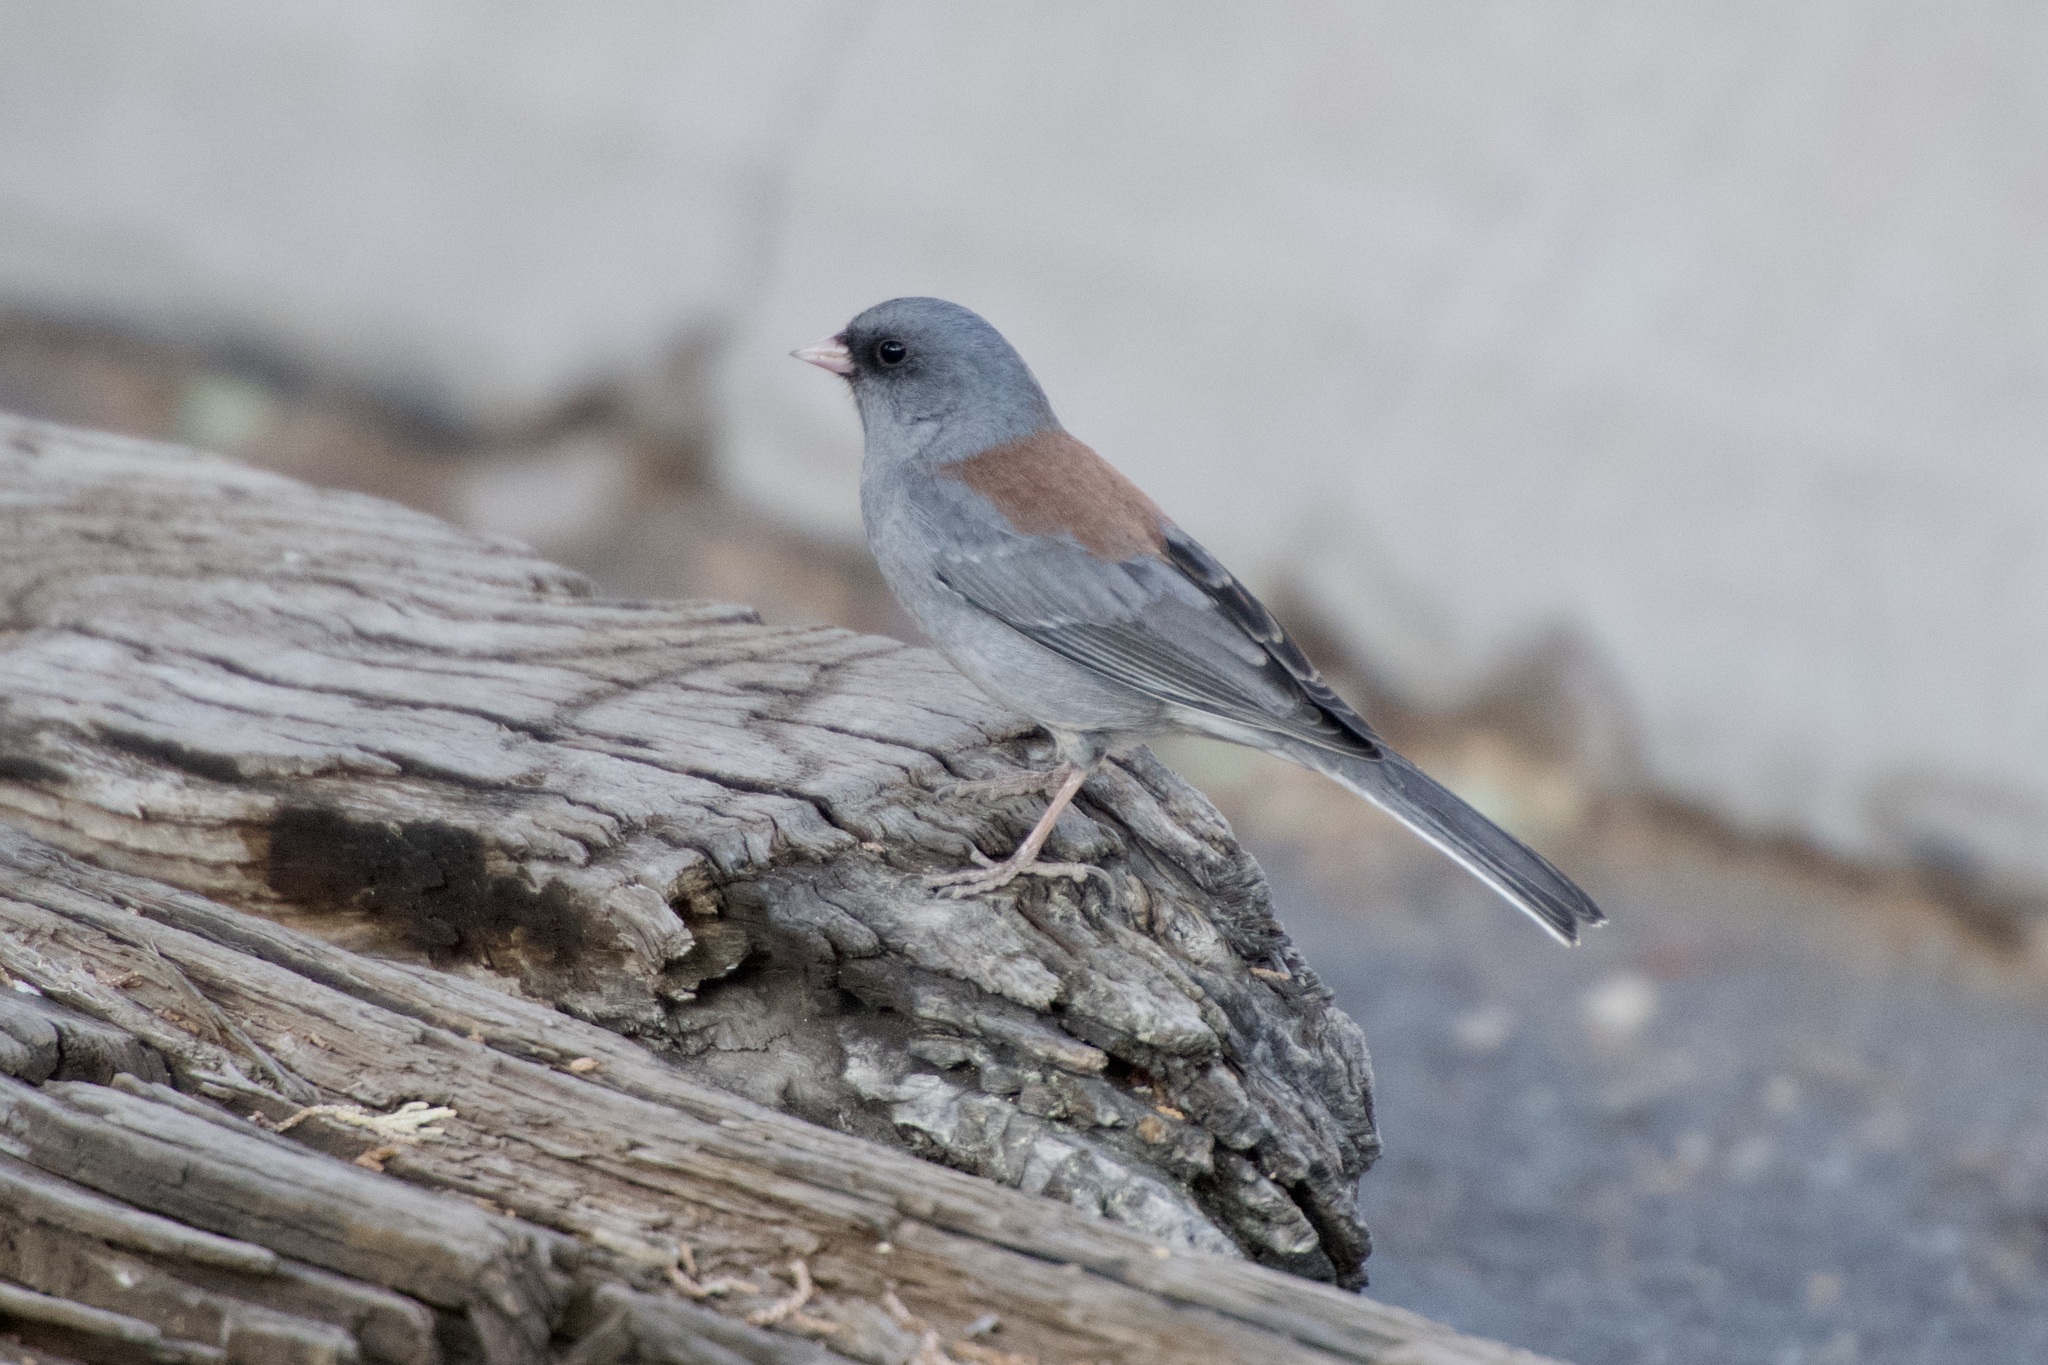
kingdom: Animalia
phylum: Chordata
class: Aves
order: Passeriformes
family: Passerellidae
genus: Junco
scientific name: Junco hyemalis
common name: Dark-eyed junco
